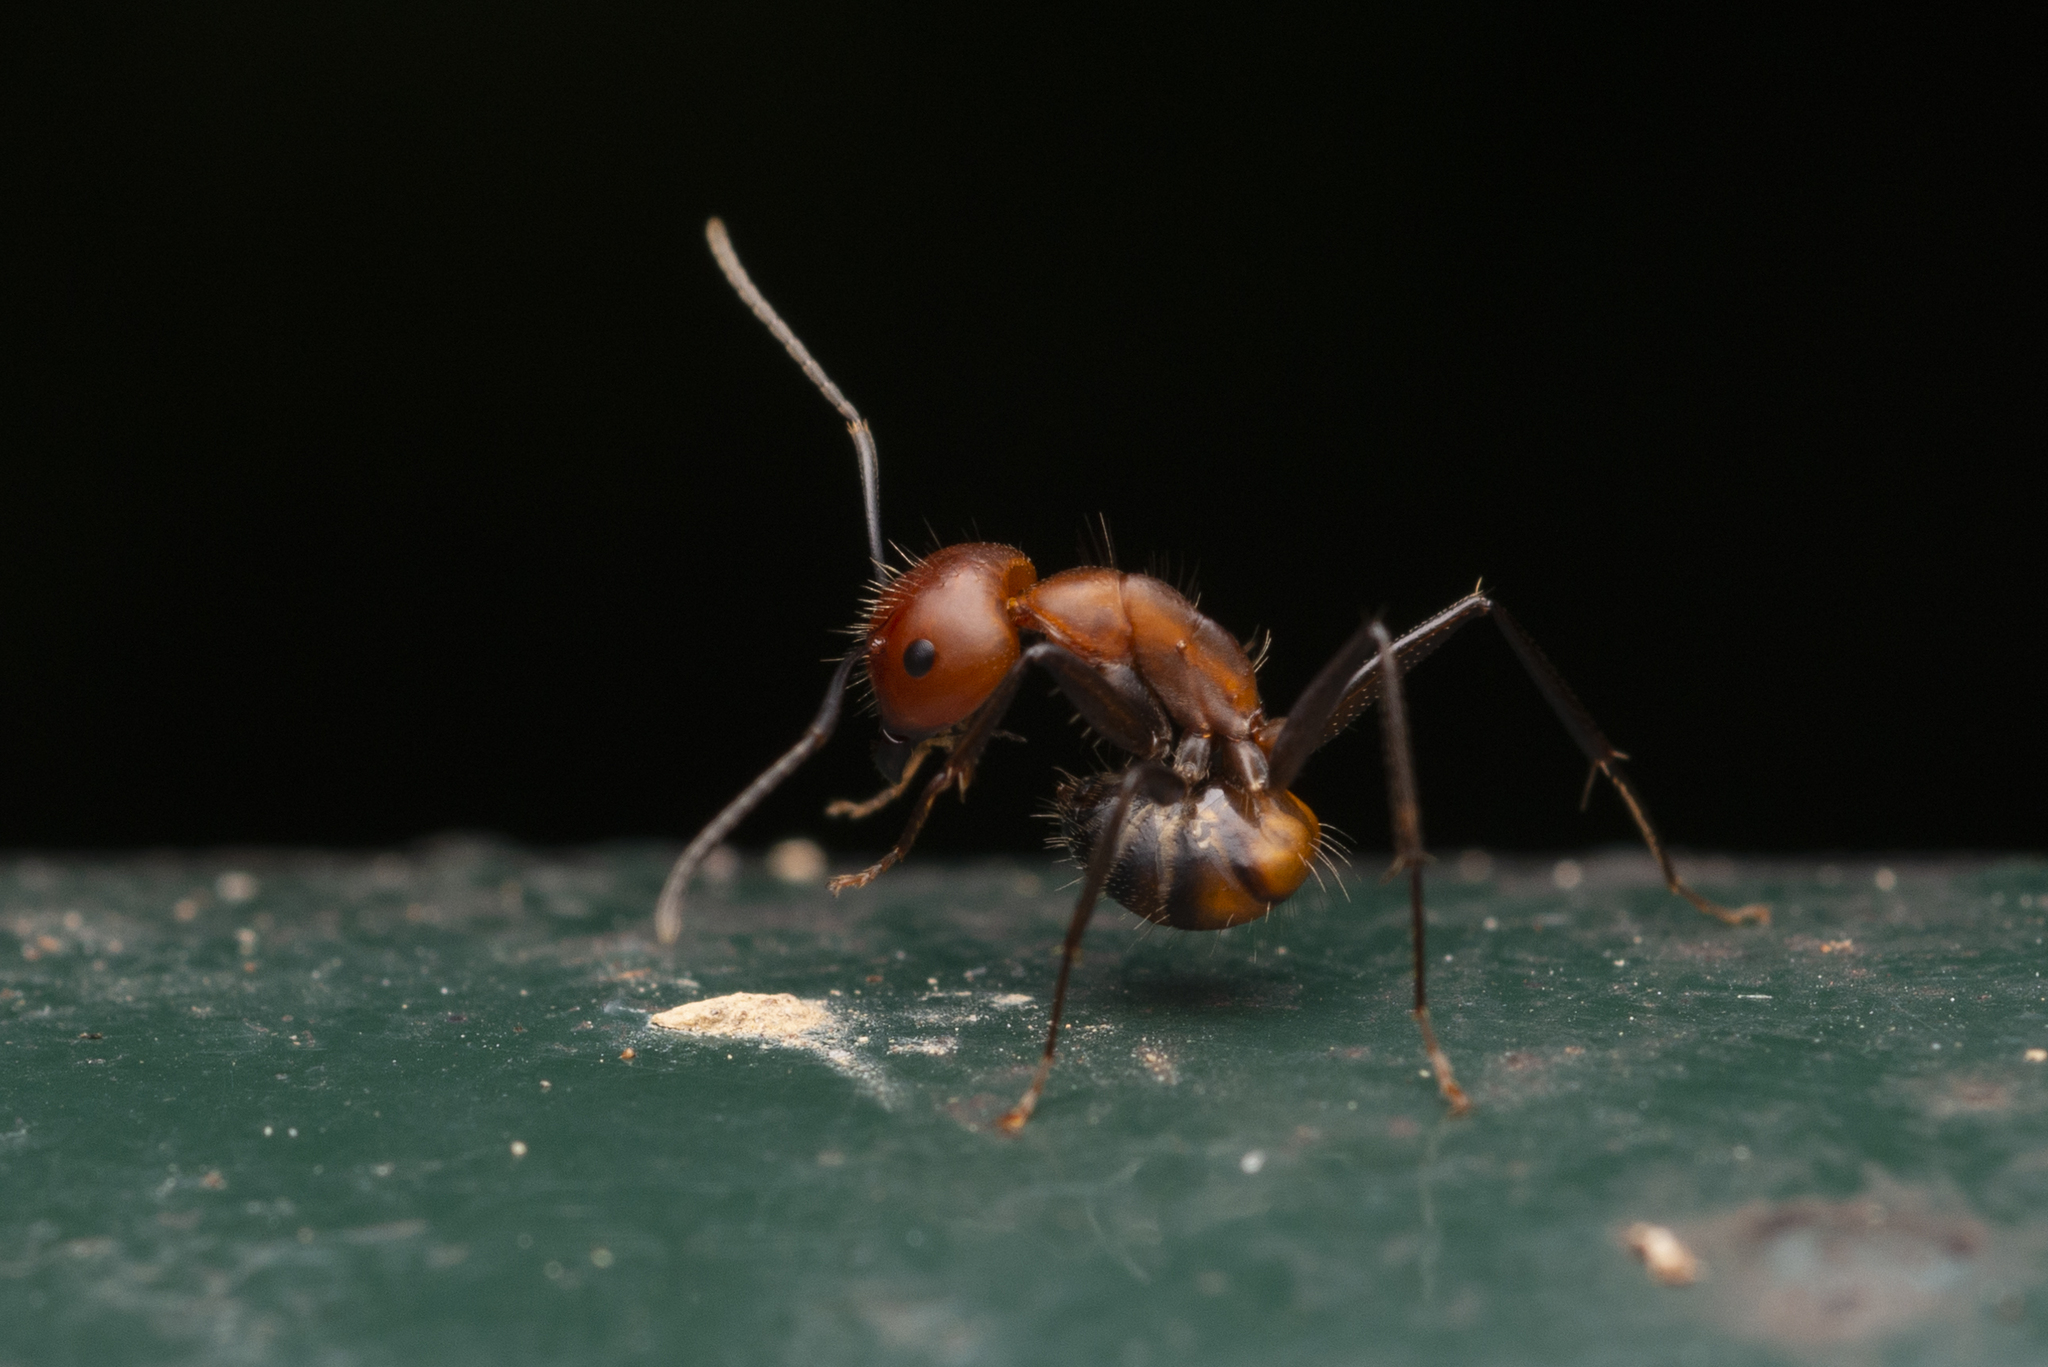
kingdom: Animalia
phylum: Arthropoda
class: Insecta
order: Hymenoptera
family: Formicidae
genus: Camponotus
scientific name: Camponotus nicobarensis
